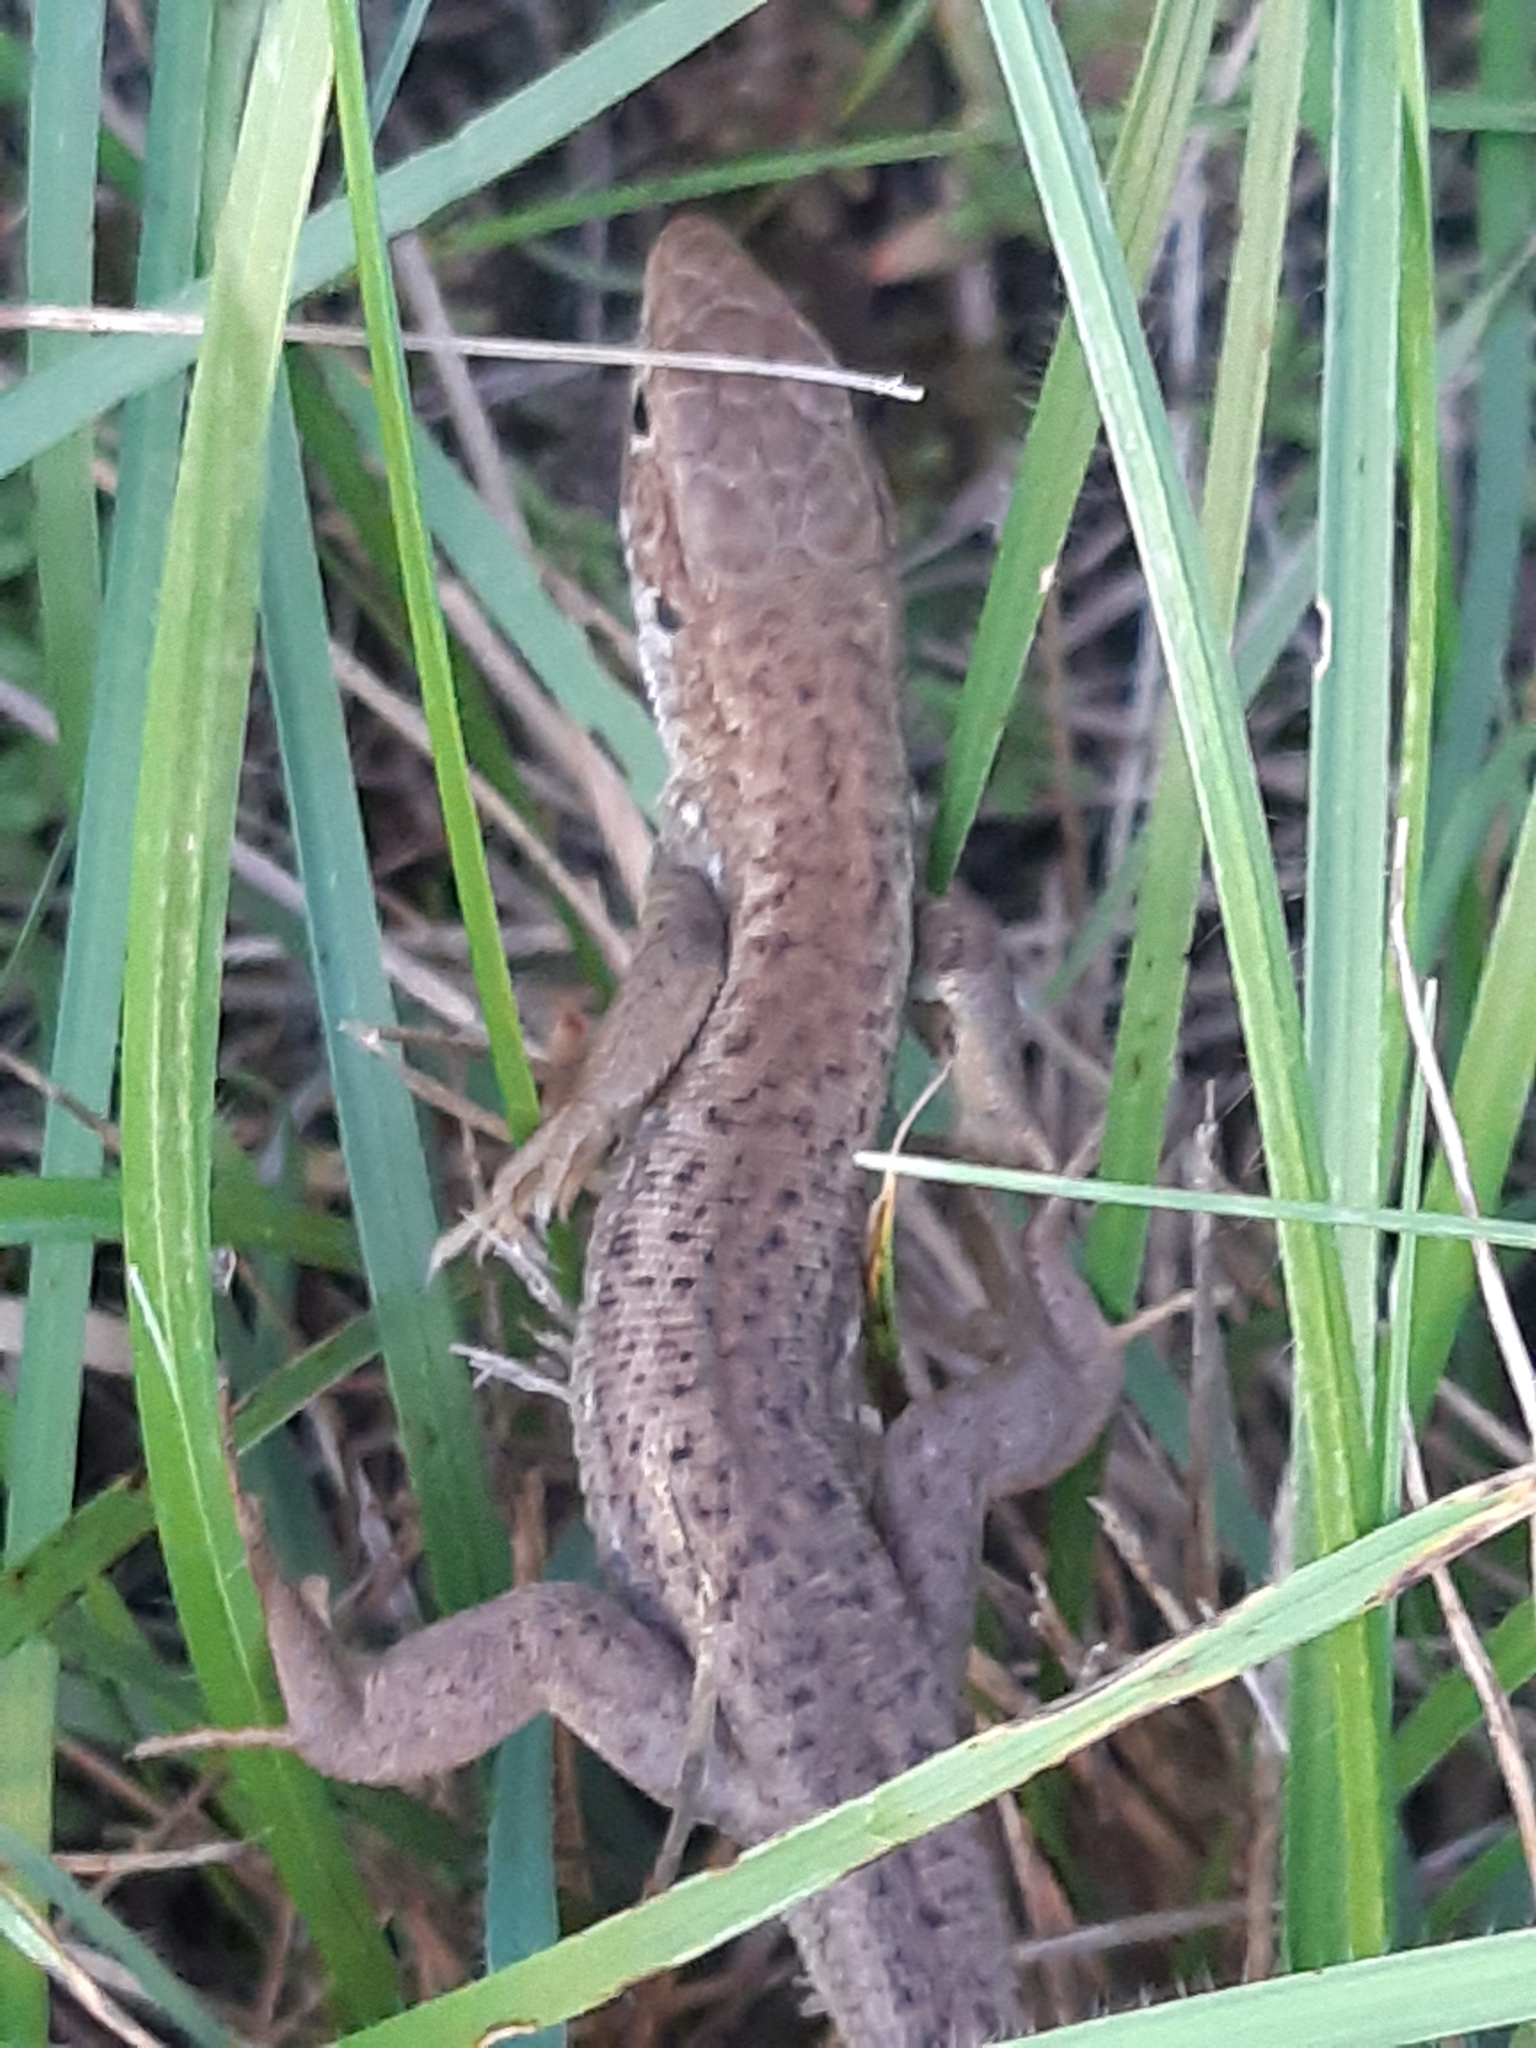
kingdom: Animalia
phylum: Chordata
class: Squamata
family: Lacertidae
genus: Lacerta
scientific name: Lacerta viridis
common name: European green lizard
